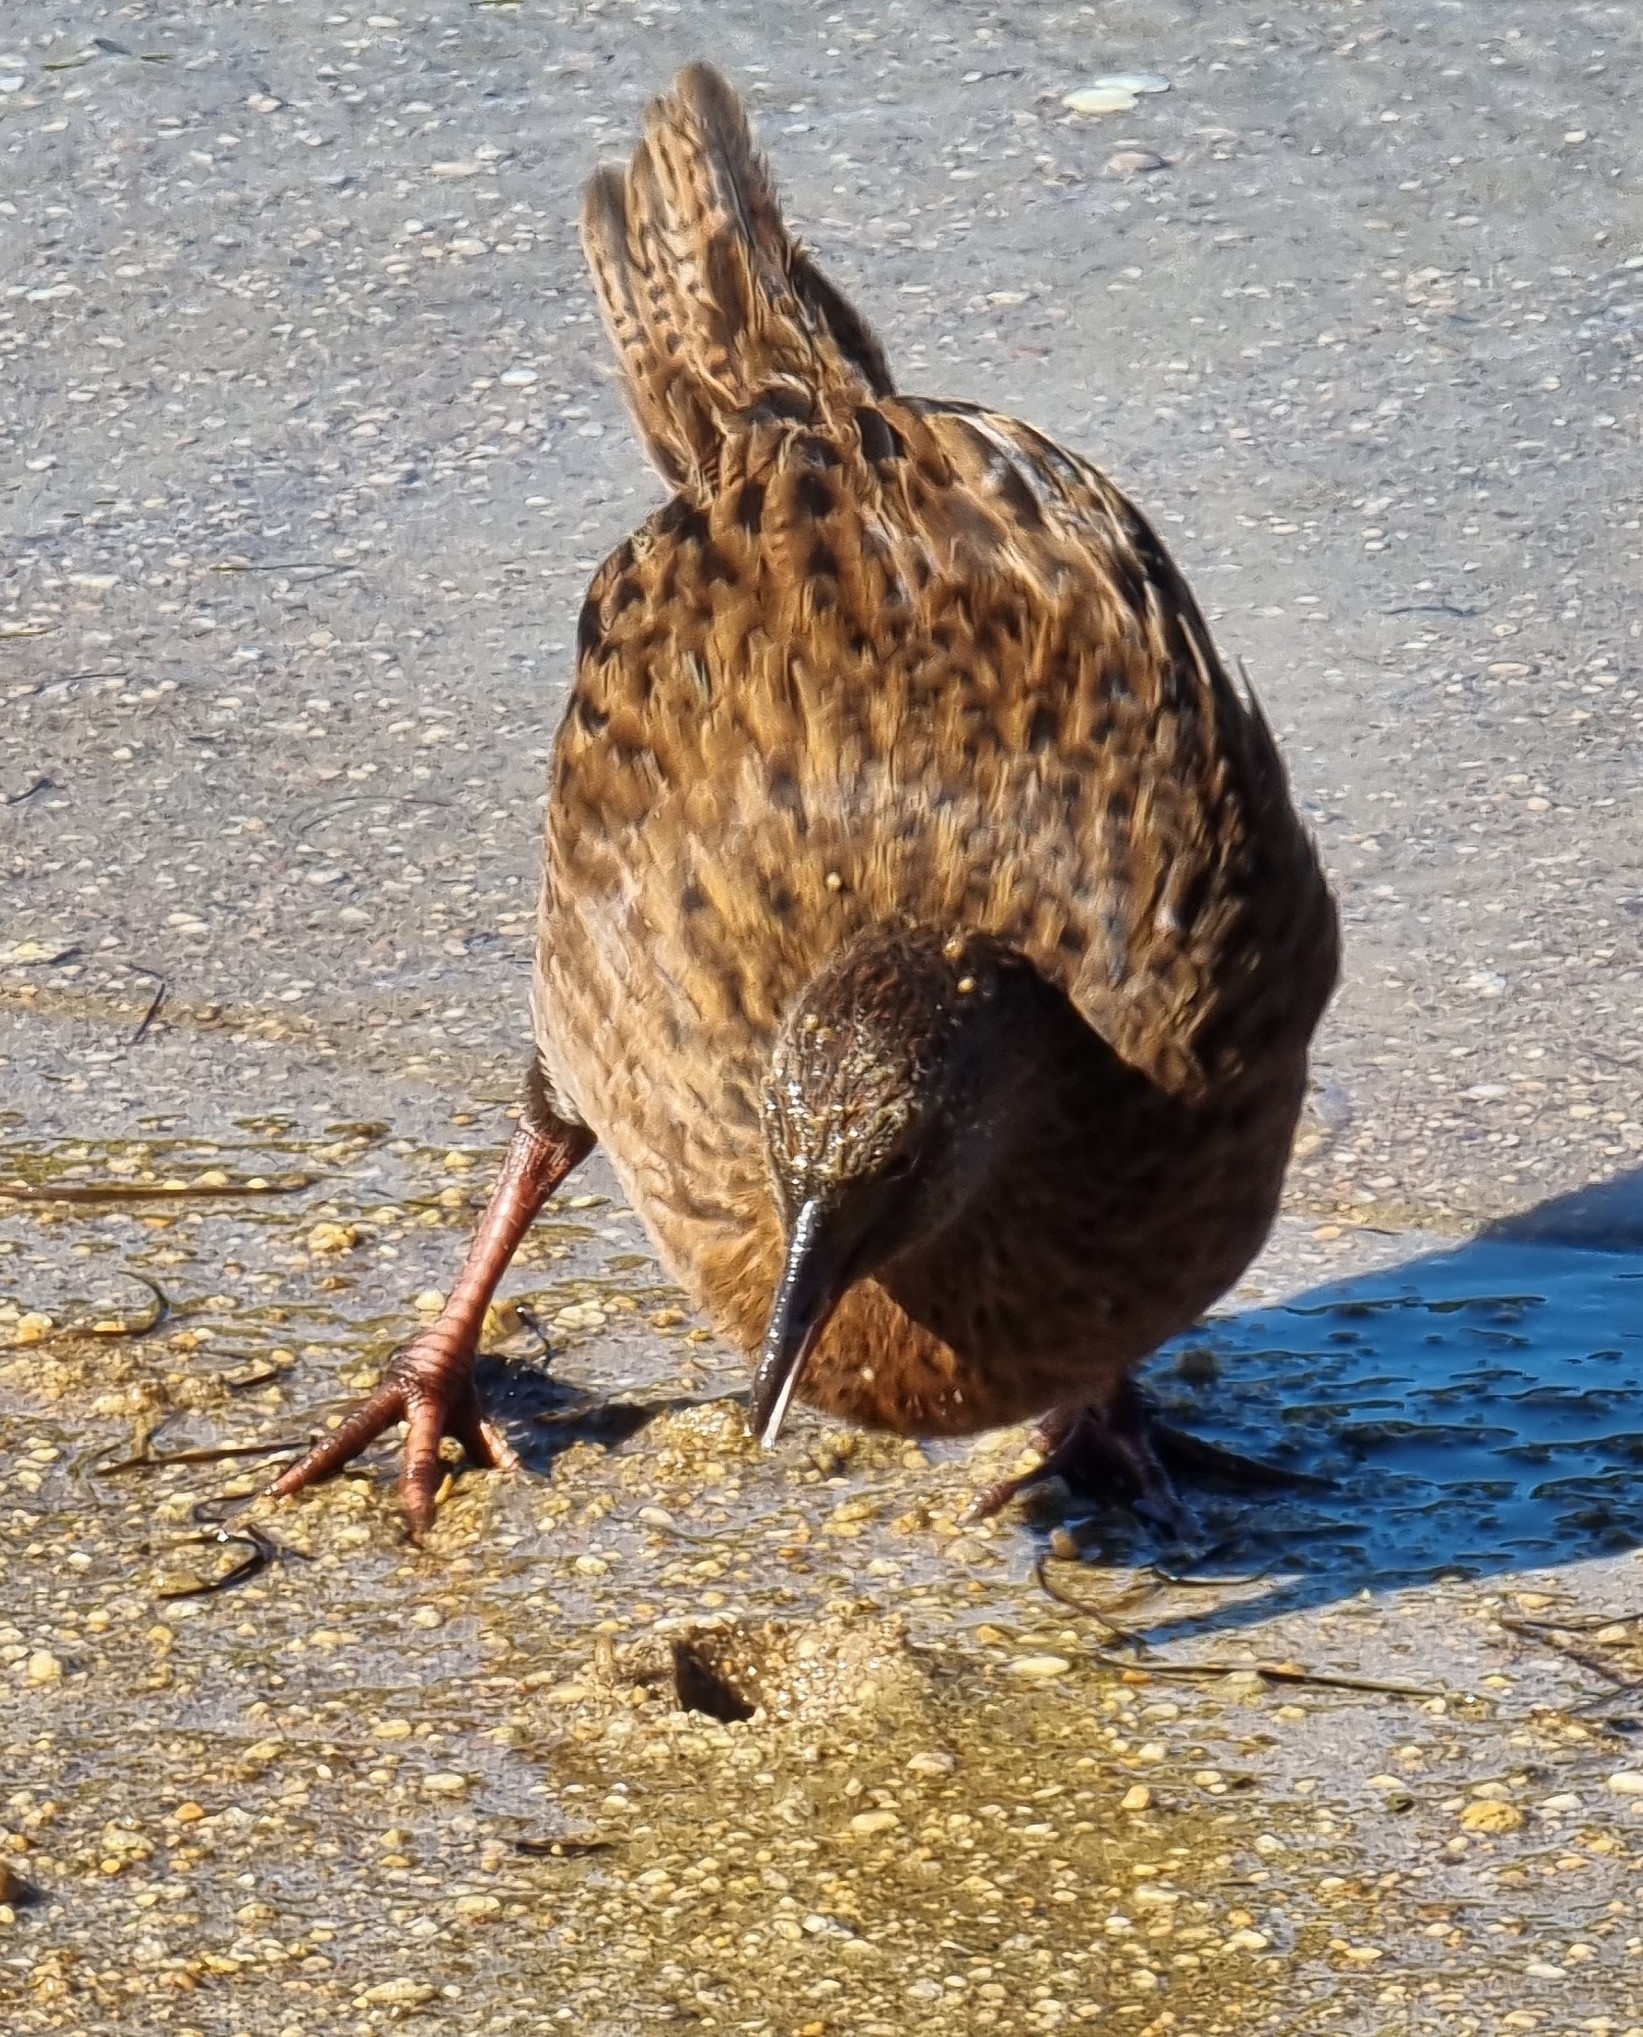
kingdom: Animalia
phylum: Chordata
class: Aves
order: Gruiformes
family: Rallidae
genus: Gallirallus
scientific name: Gallirallus australis
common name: Weka
